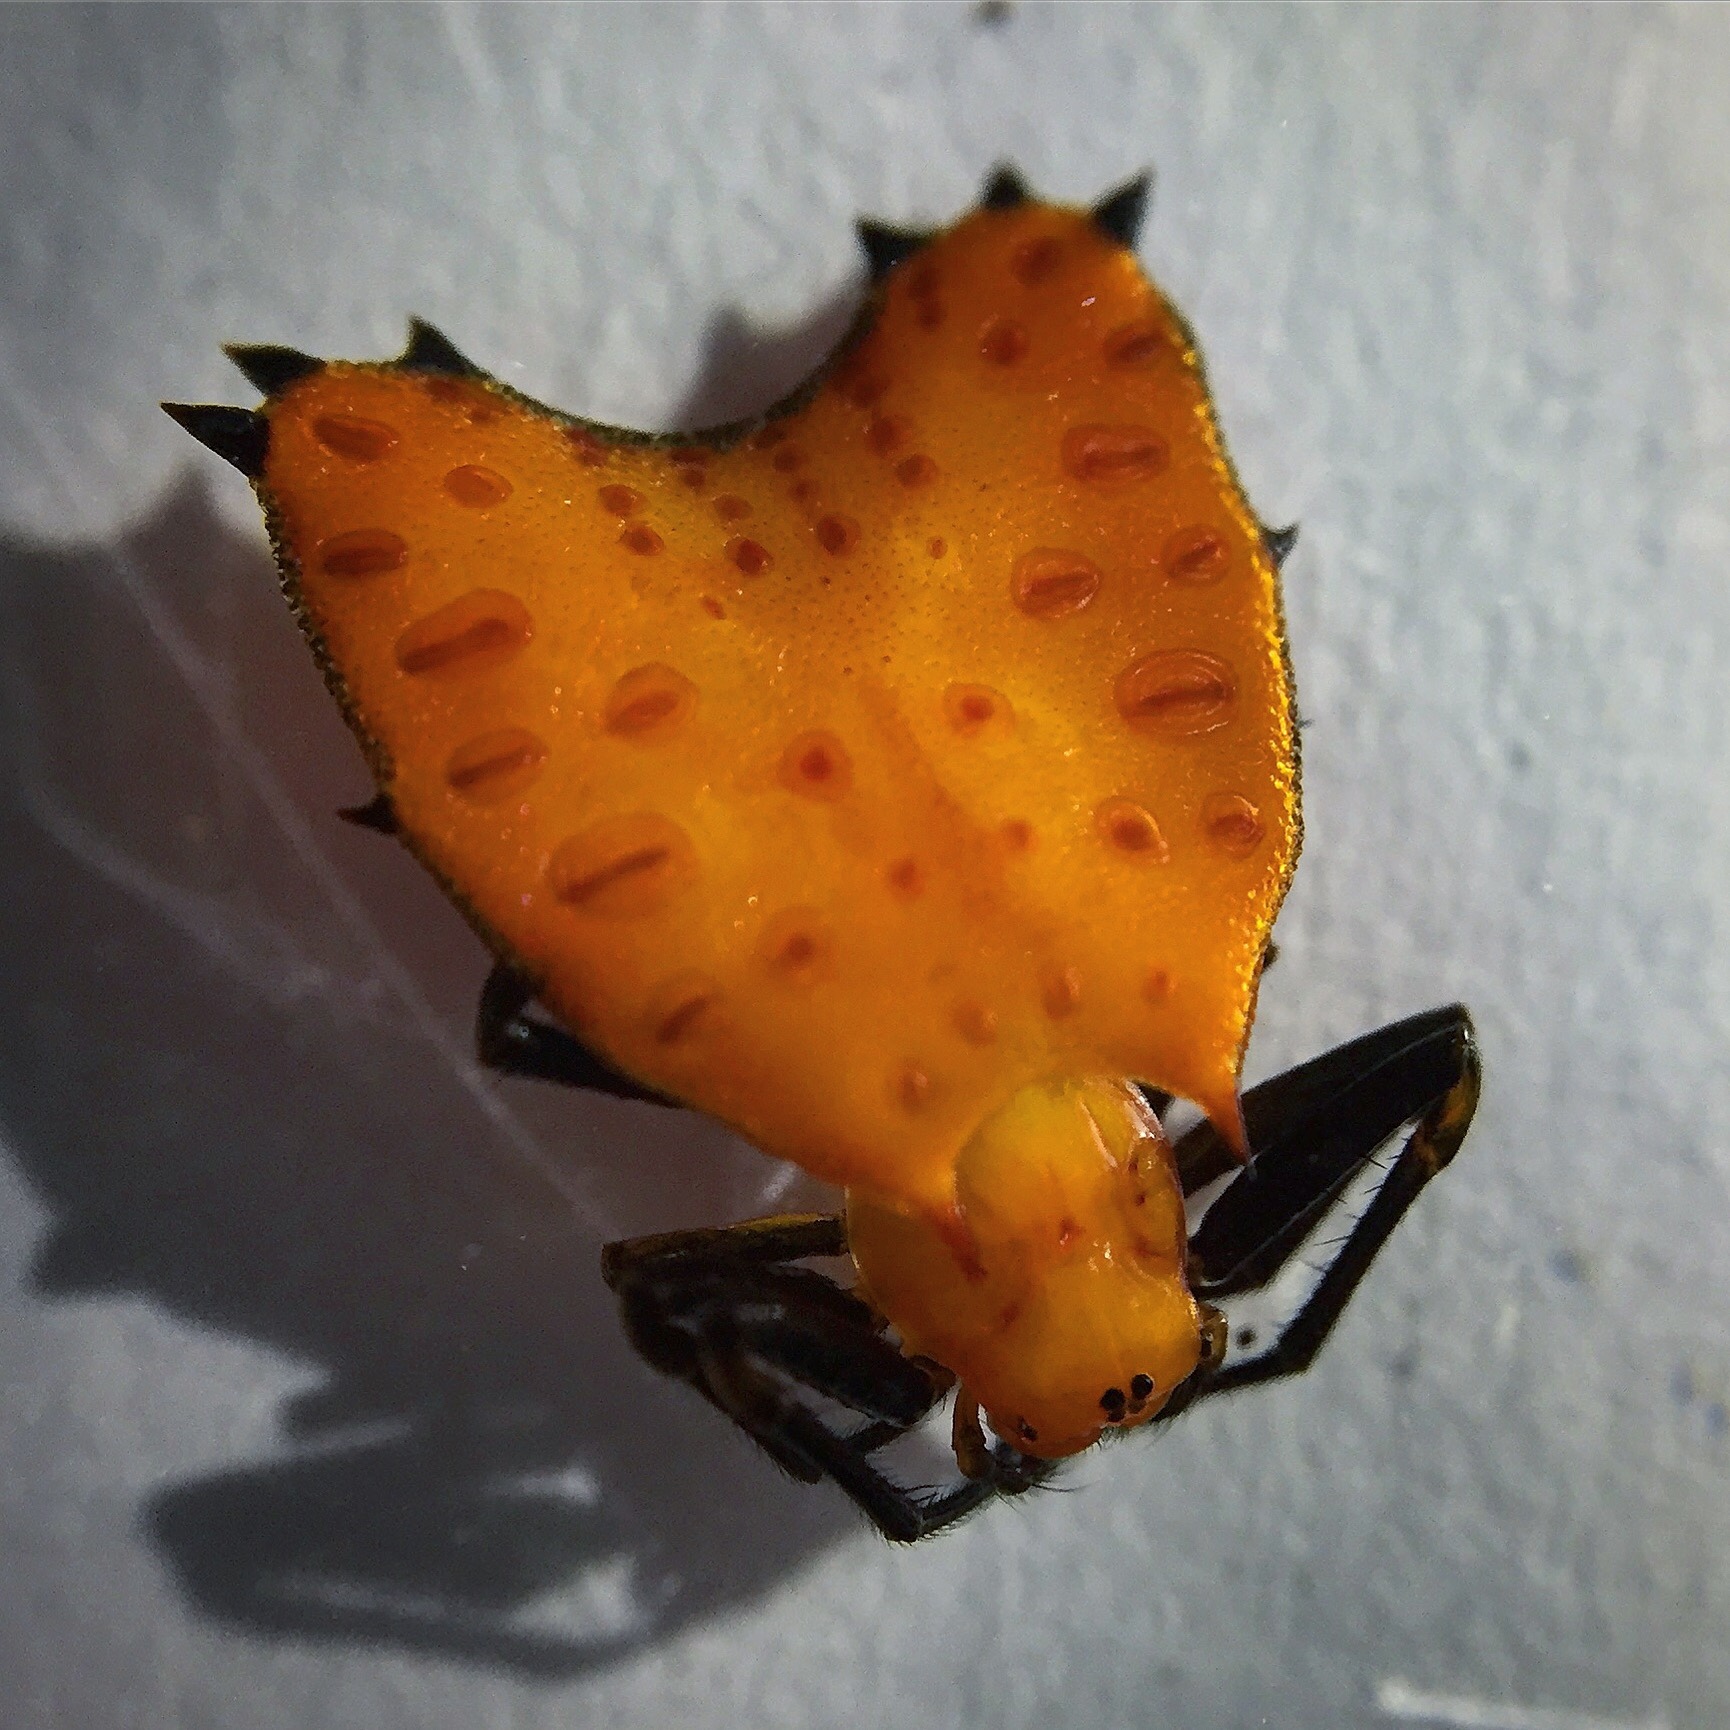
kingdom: Animalia
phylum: Arthropoda
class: Arachnida
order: Araneae
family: Araneidae
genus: Micrathena
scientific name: Micrathena clypeata
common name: Orb weavers
